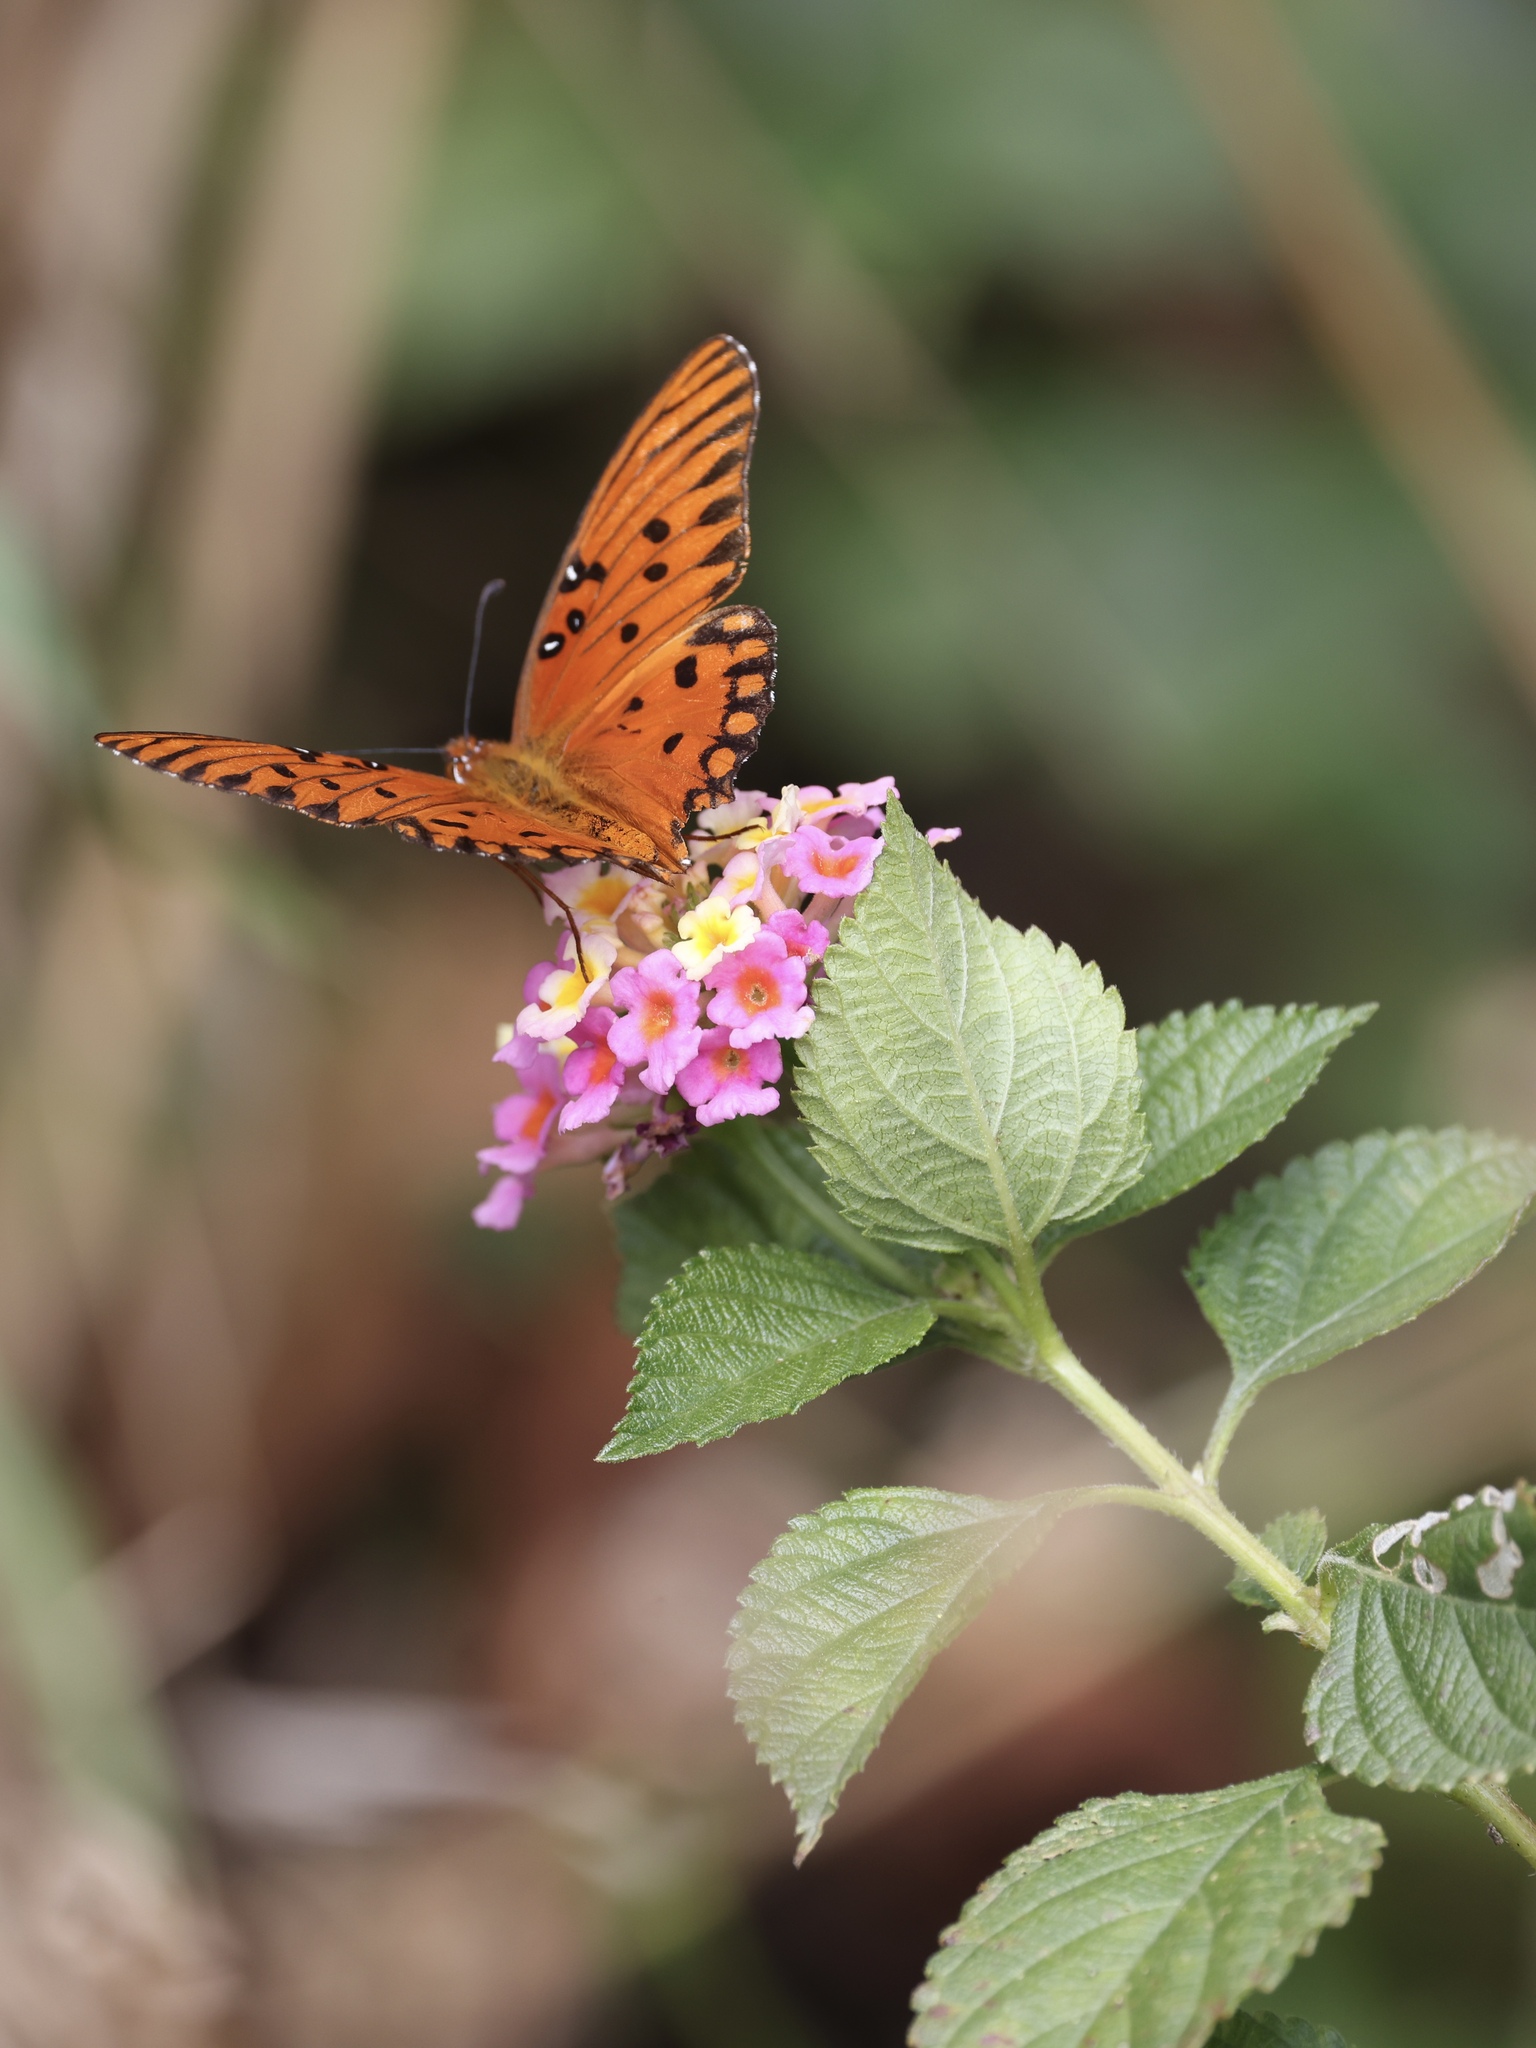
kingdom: Animalia
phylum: Arthropoda
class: Insecta
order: Lepidoptera
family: Nymphalidae
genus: Dione
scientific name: Dione vanillae
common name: Gulf fritillary
